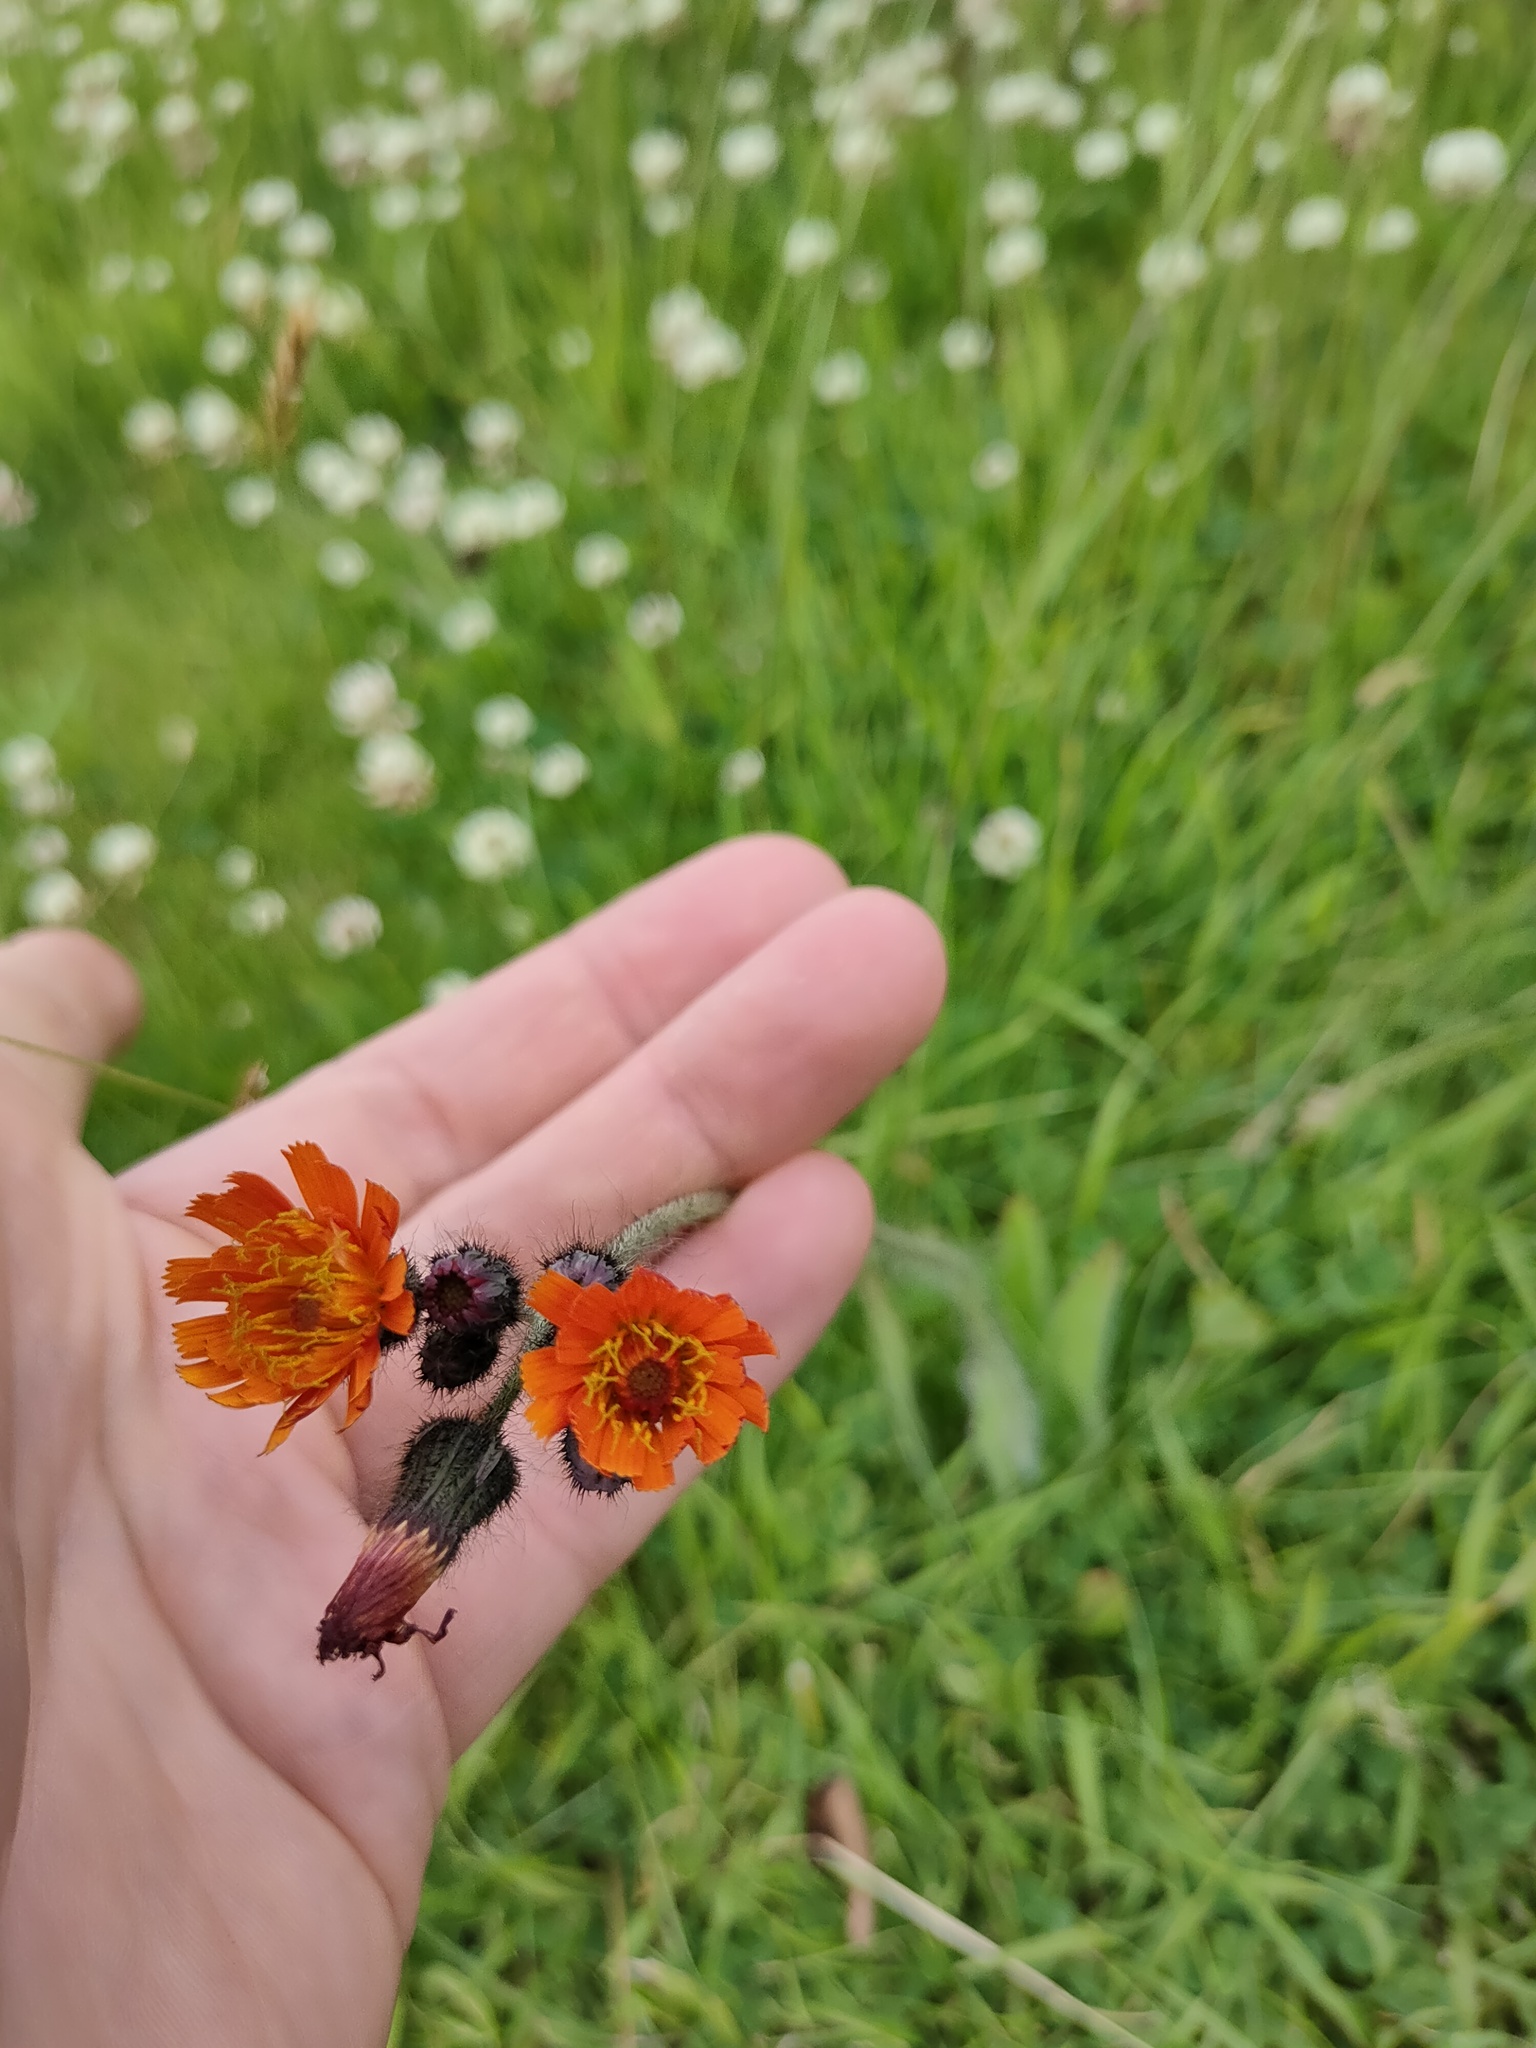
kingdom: Plantae
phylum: Tracheophyta
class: Magnoliopsida
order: Asterales
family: Asteraceae
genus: Pilosella
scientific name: Pilosella aurantiaca
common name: Fox-and-cubs
